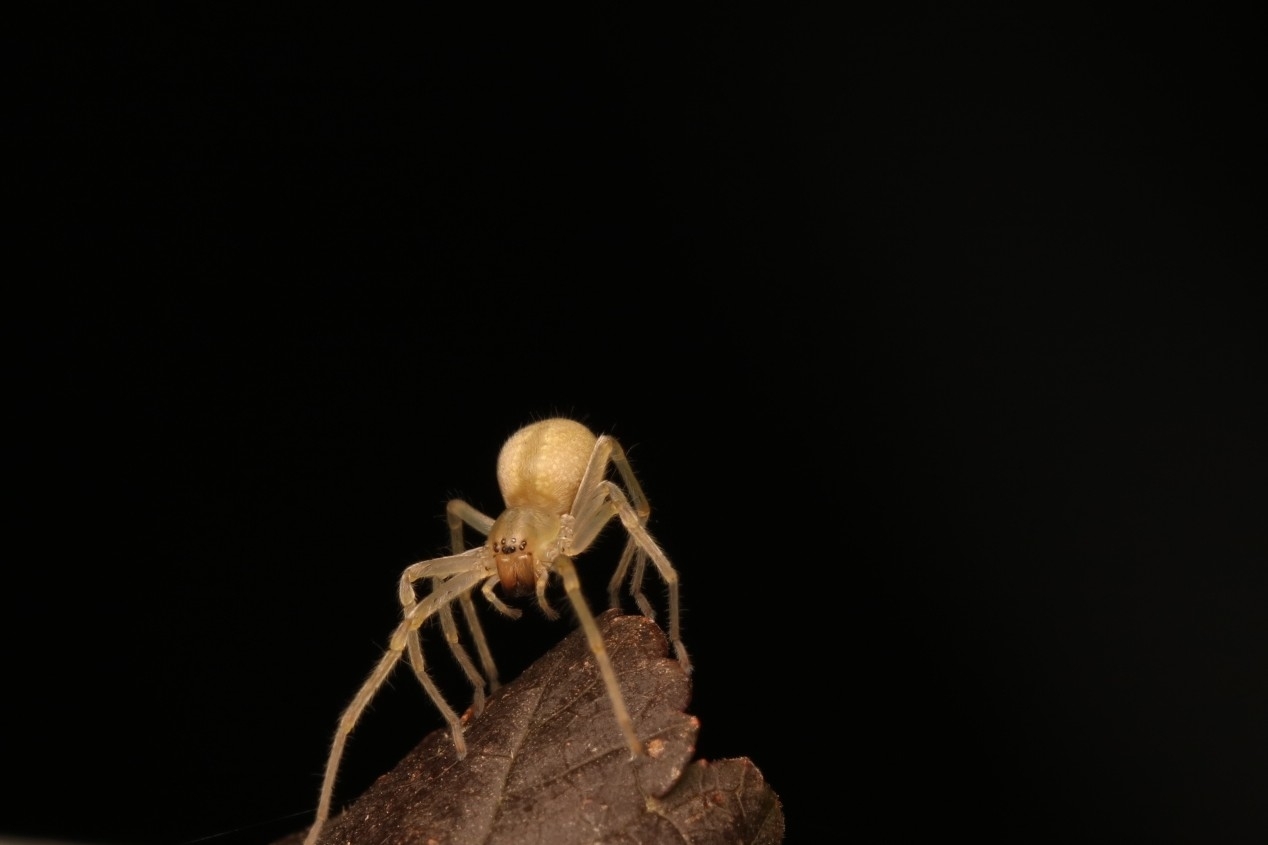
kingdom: Animalia
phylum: Arthropoda
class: Arachnida
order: Araneae
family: Cheiracanthiidae
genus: Cheiracanthium
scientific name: Cheiracanthium mildei
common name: Northern yellow sac spider
